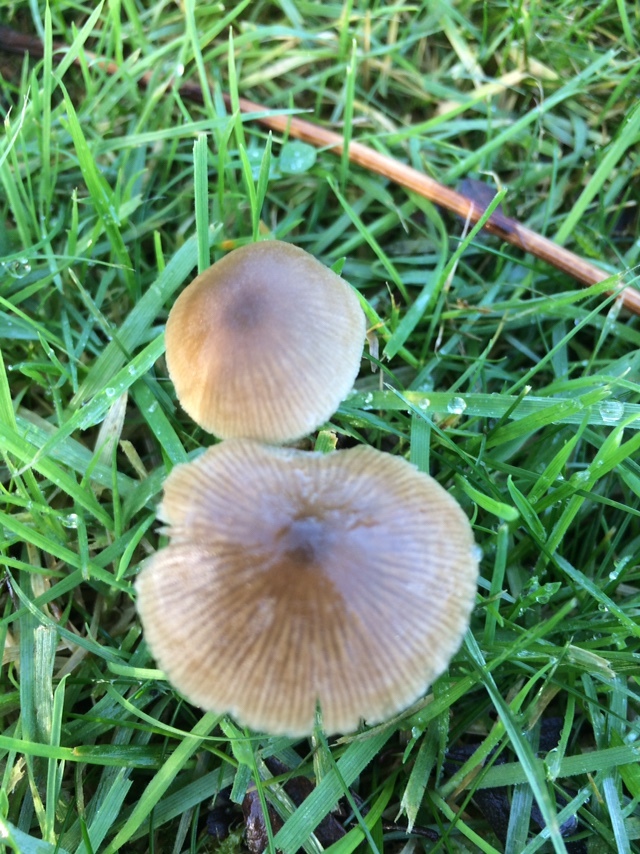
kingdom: Fungi
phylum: Basidiomycota
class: Agaricomycetes
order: Agaricales
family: Entolomataceae
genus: Entoloma
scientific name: Entoloma conferendum
